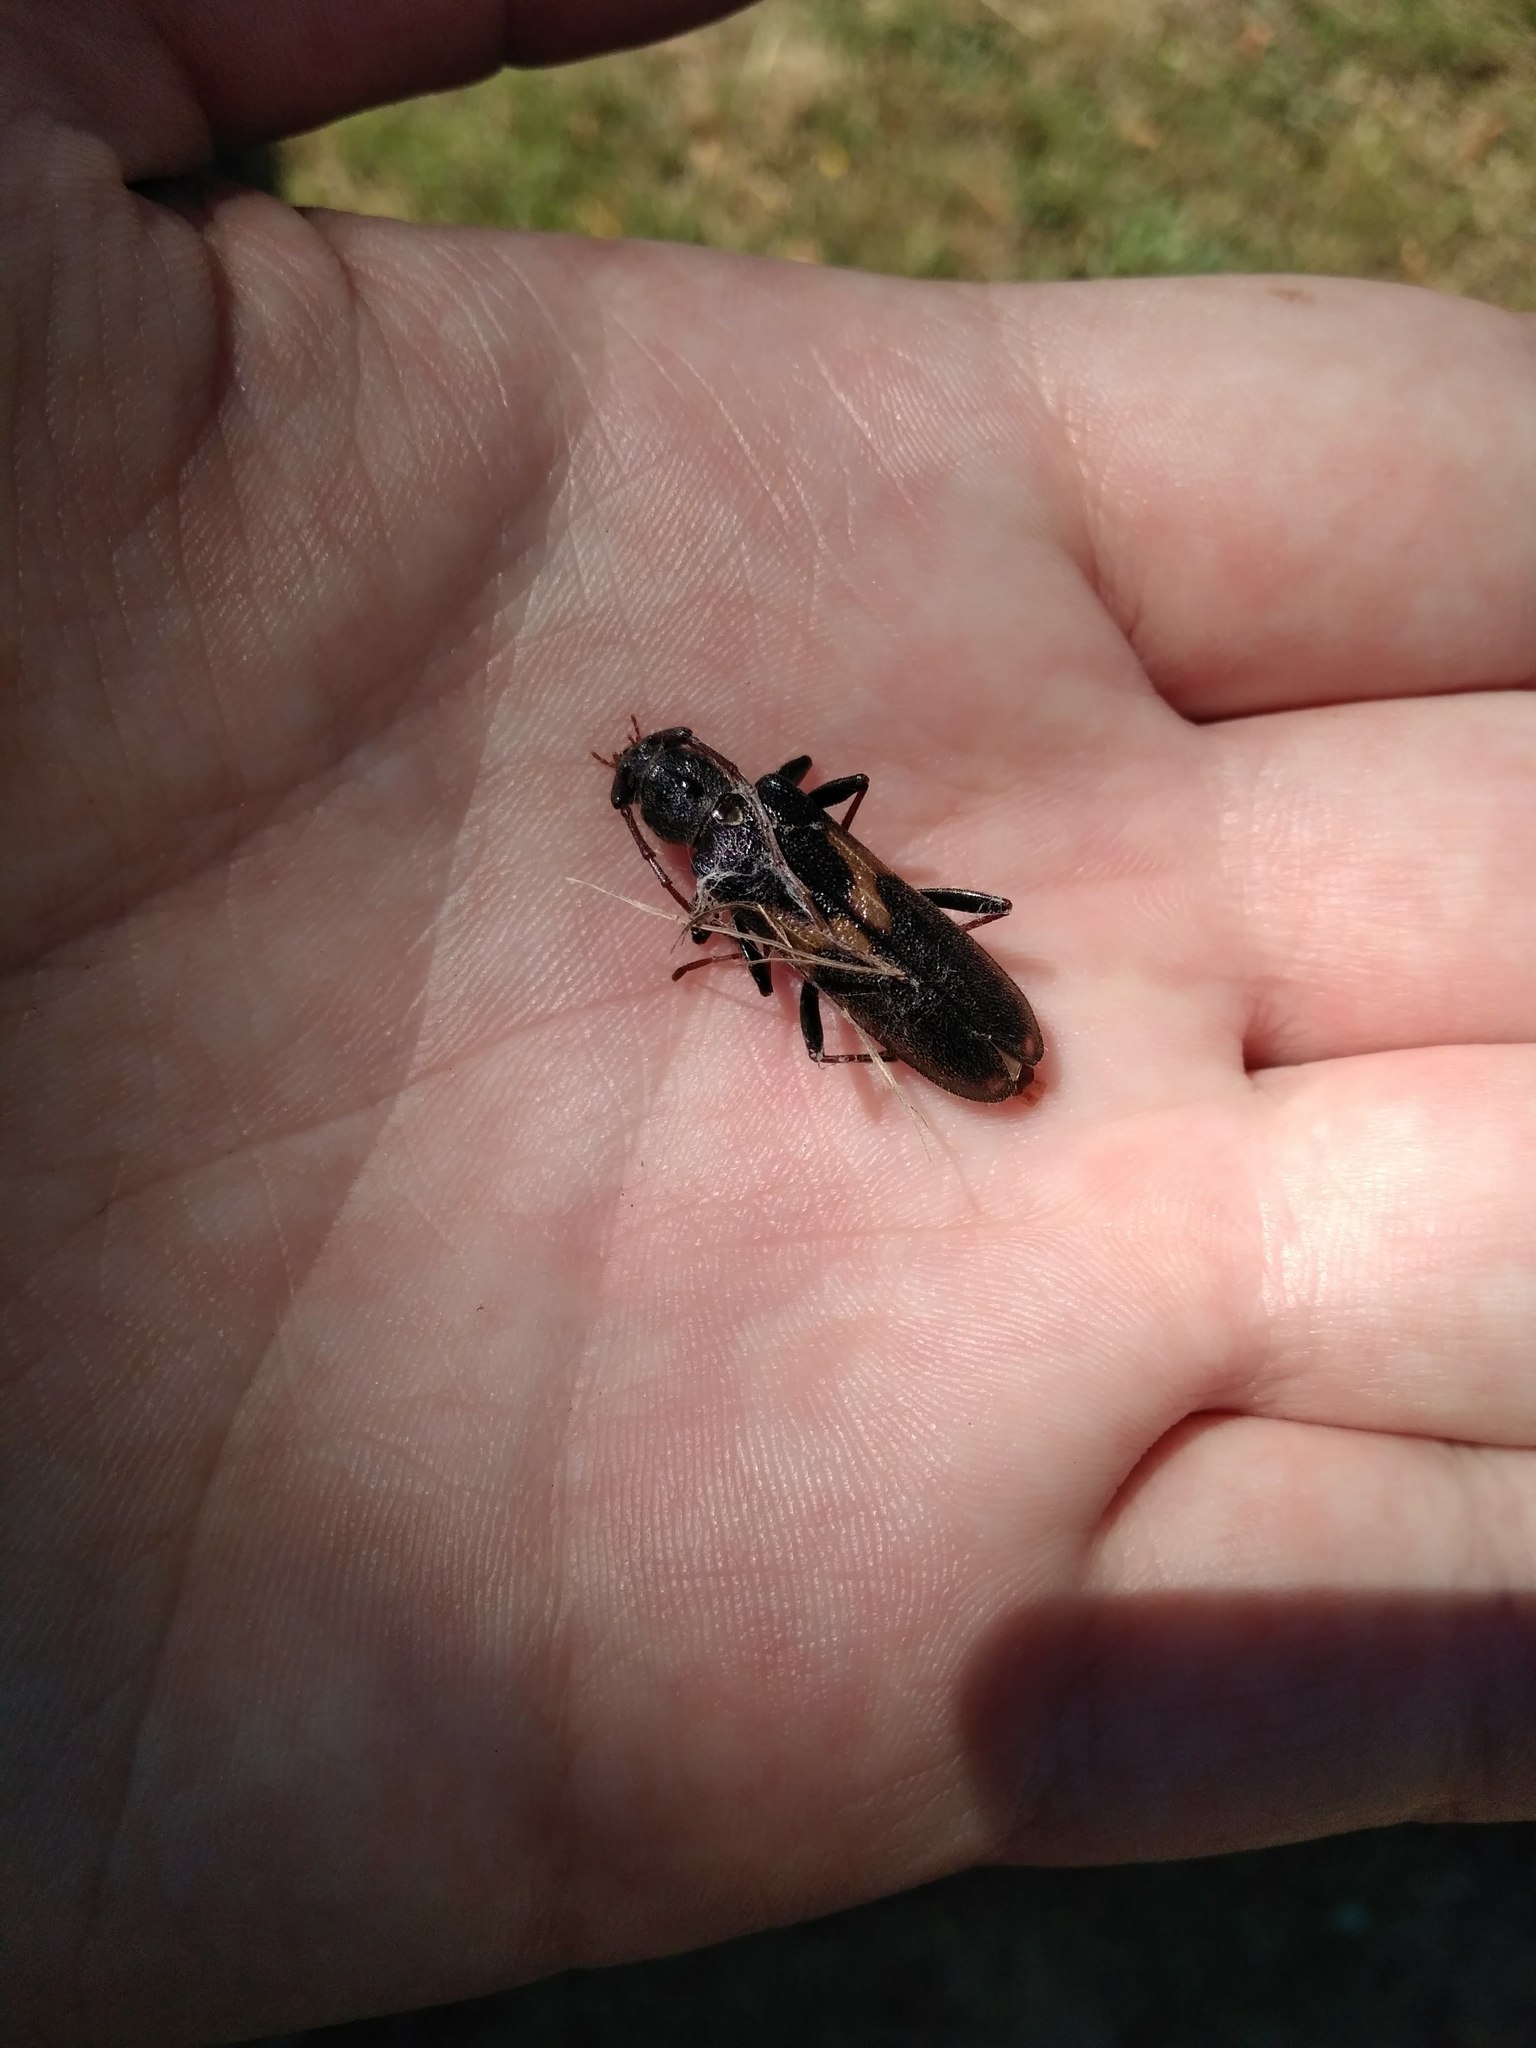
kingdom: Animalia
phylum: Arthropoda
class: Insecta
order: Coleoptera
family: Cerambycidae
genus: Grammicosum
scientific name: Grammicosum flavofasciatum
